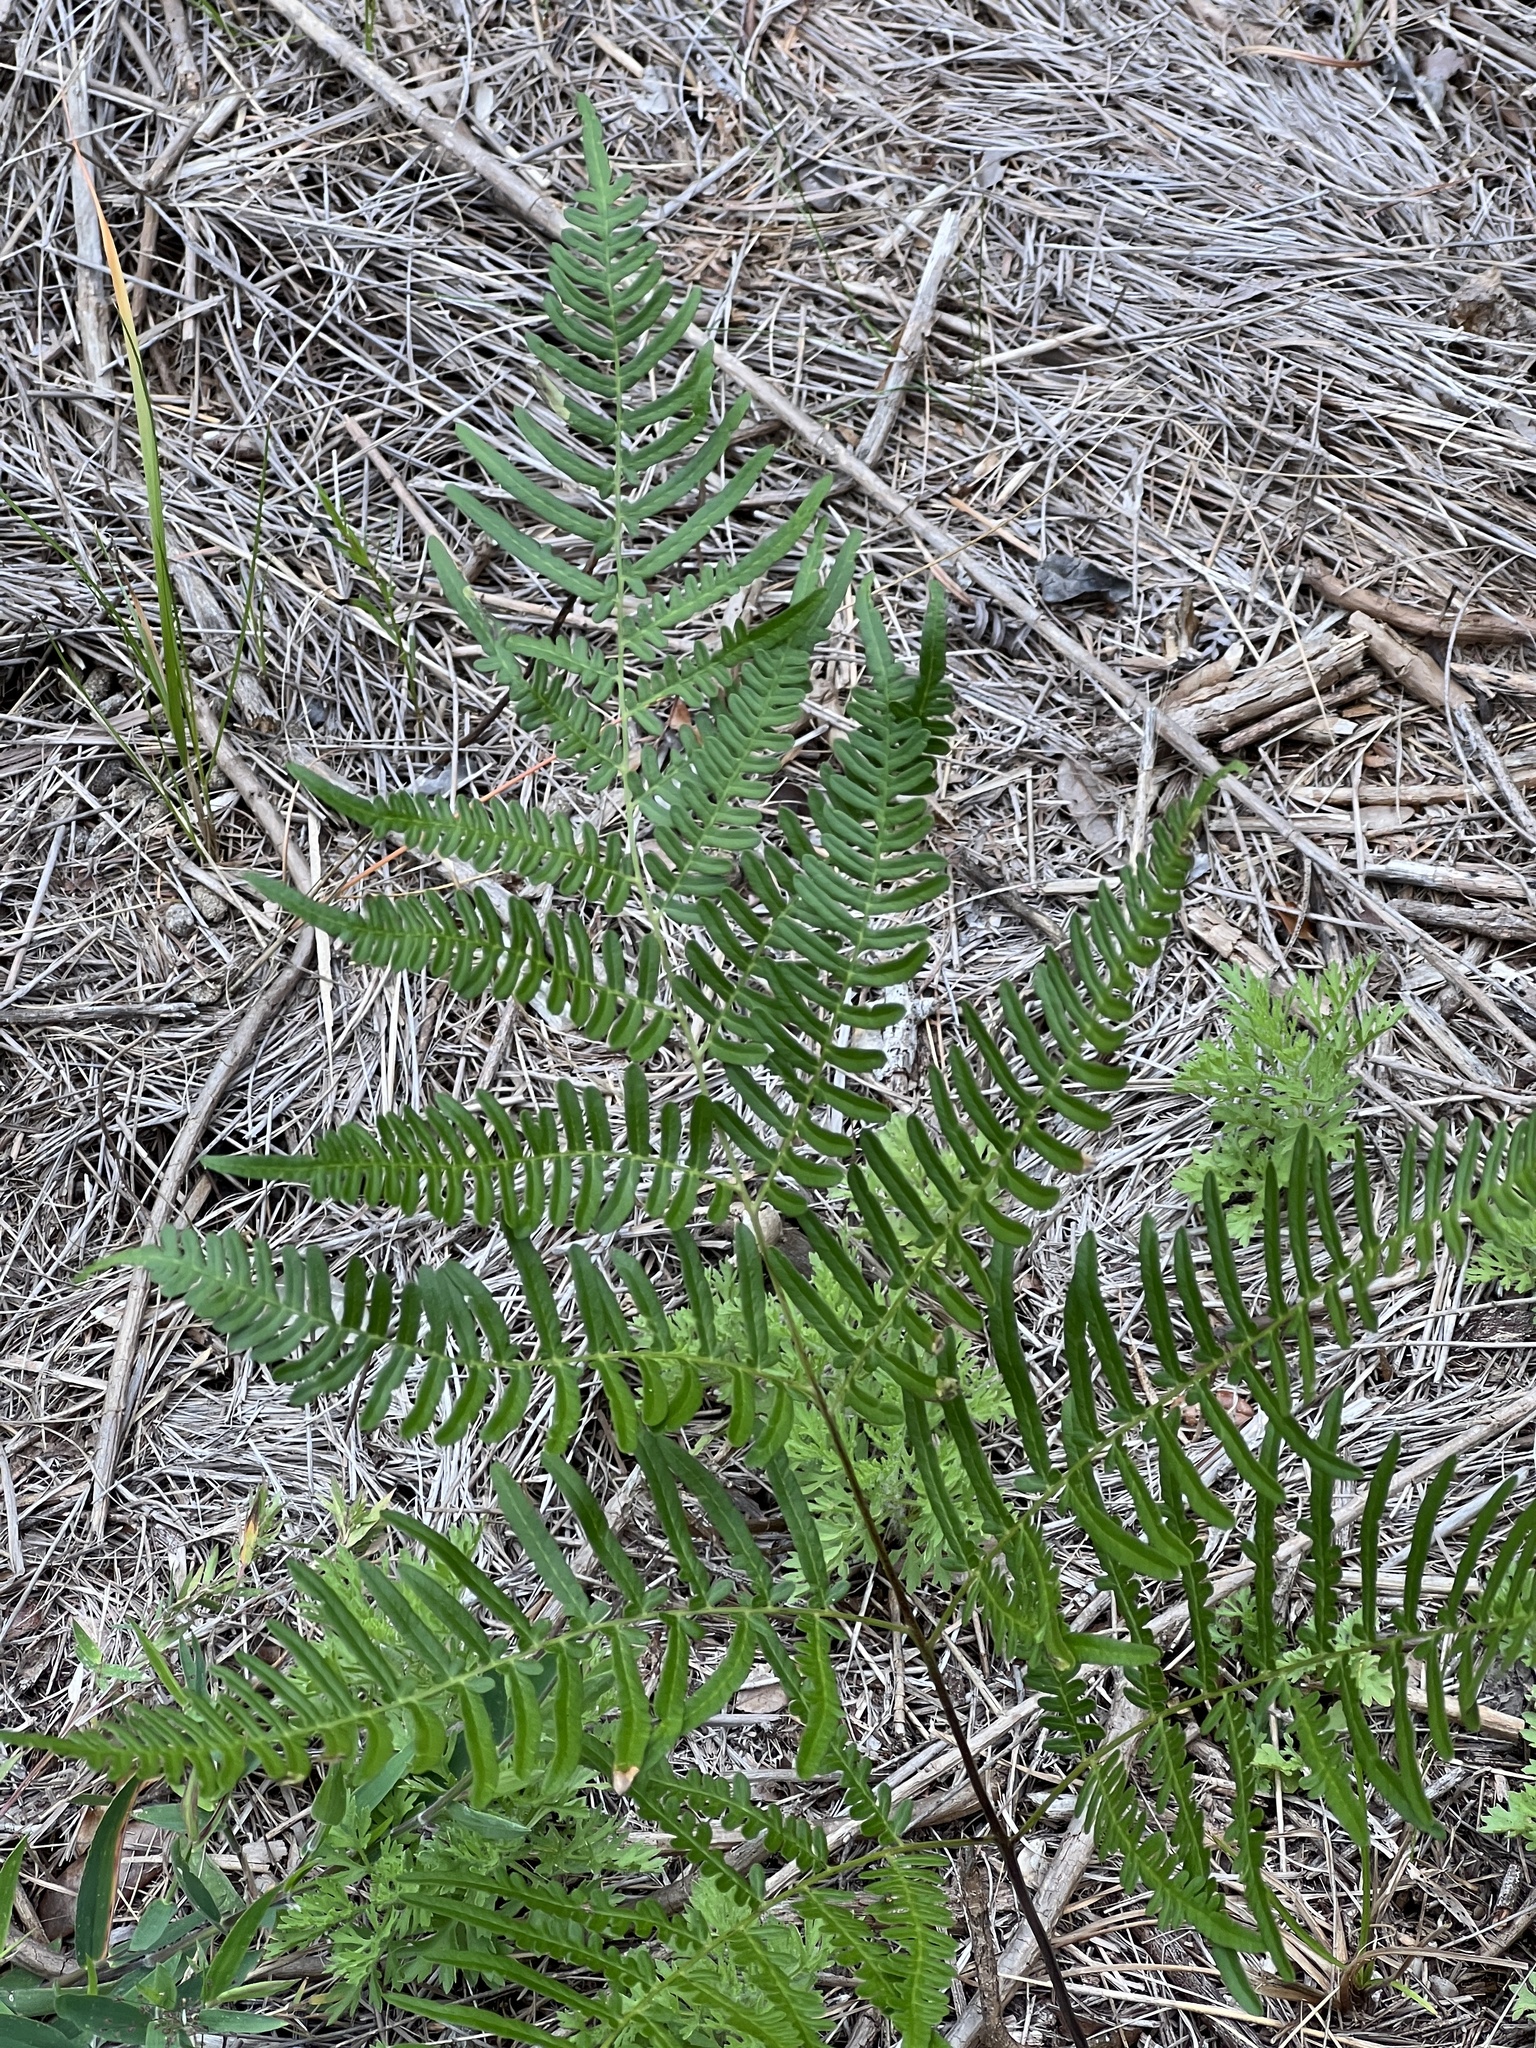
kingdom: Plantae
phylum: Tracheophyta
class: Polypodiopsida
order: Polypodiales
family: Dennstaedtiaceae
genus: Pteridium
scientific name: Pteridium
